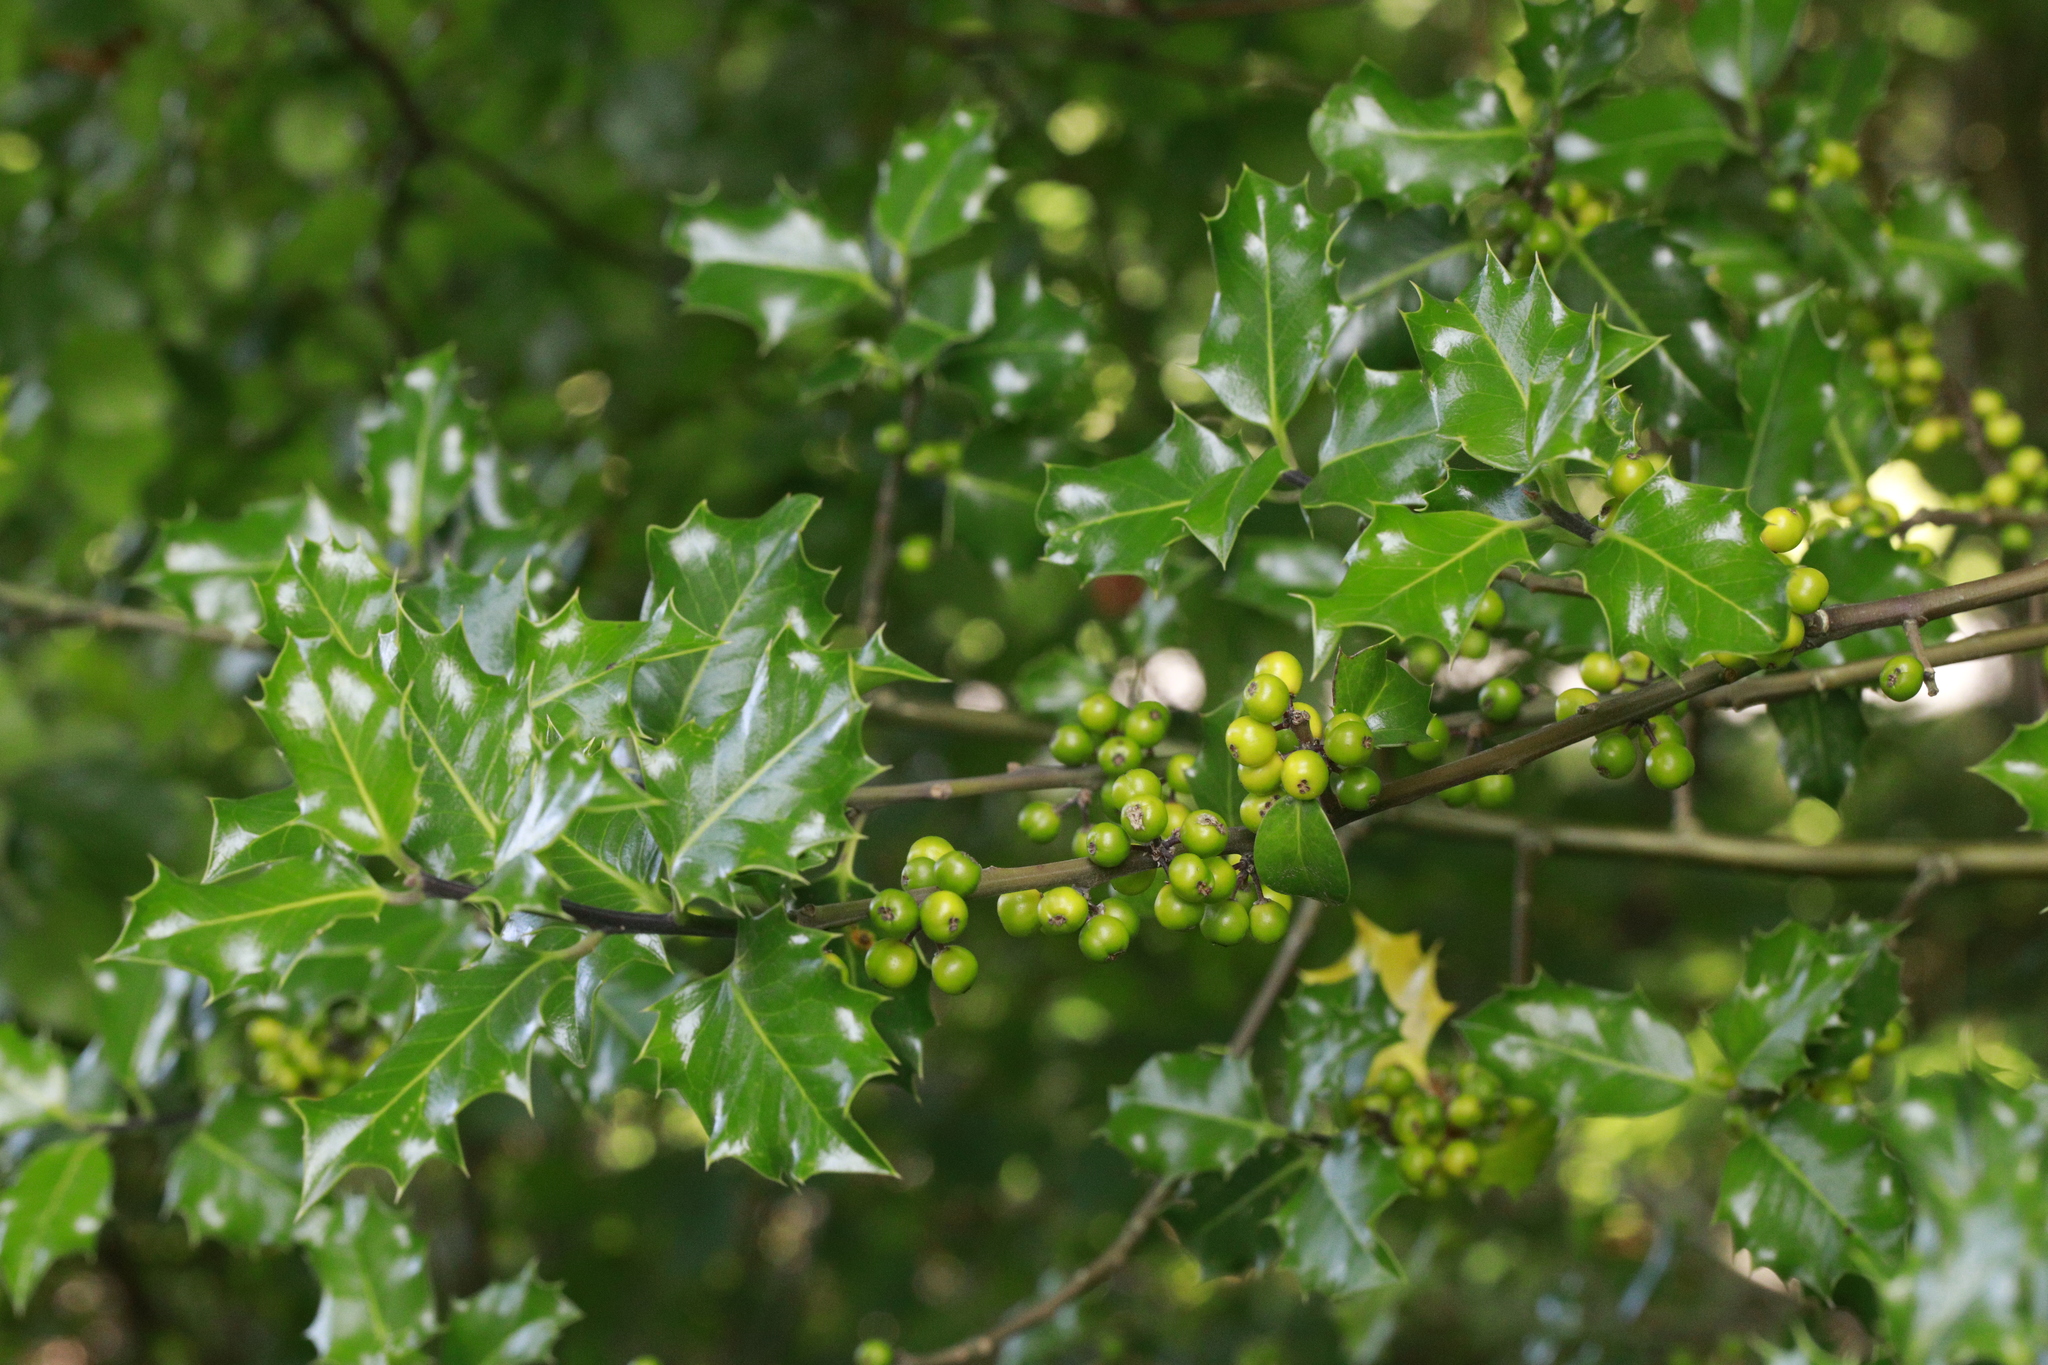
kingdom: Plantae
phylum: Tracheophyta
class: Magnoliopsida
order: Aquifoliales
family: Aquifoliaceae
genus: Ilex
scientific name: Ilex aquifolium
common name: English holly
